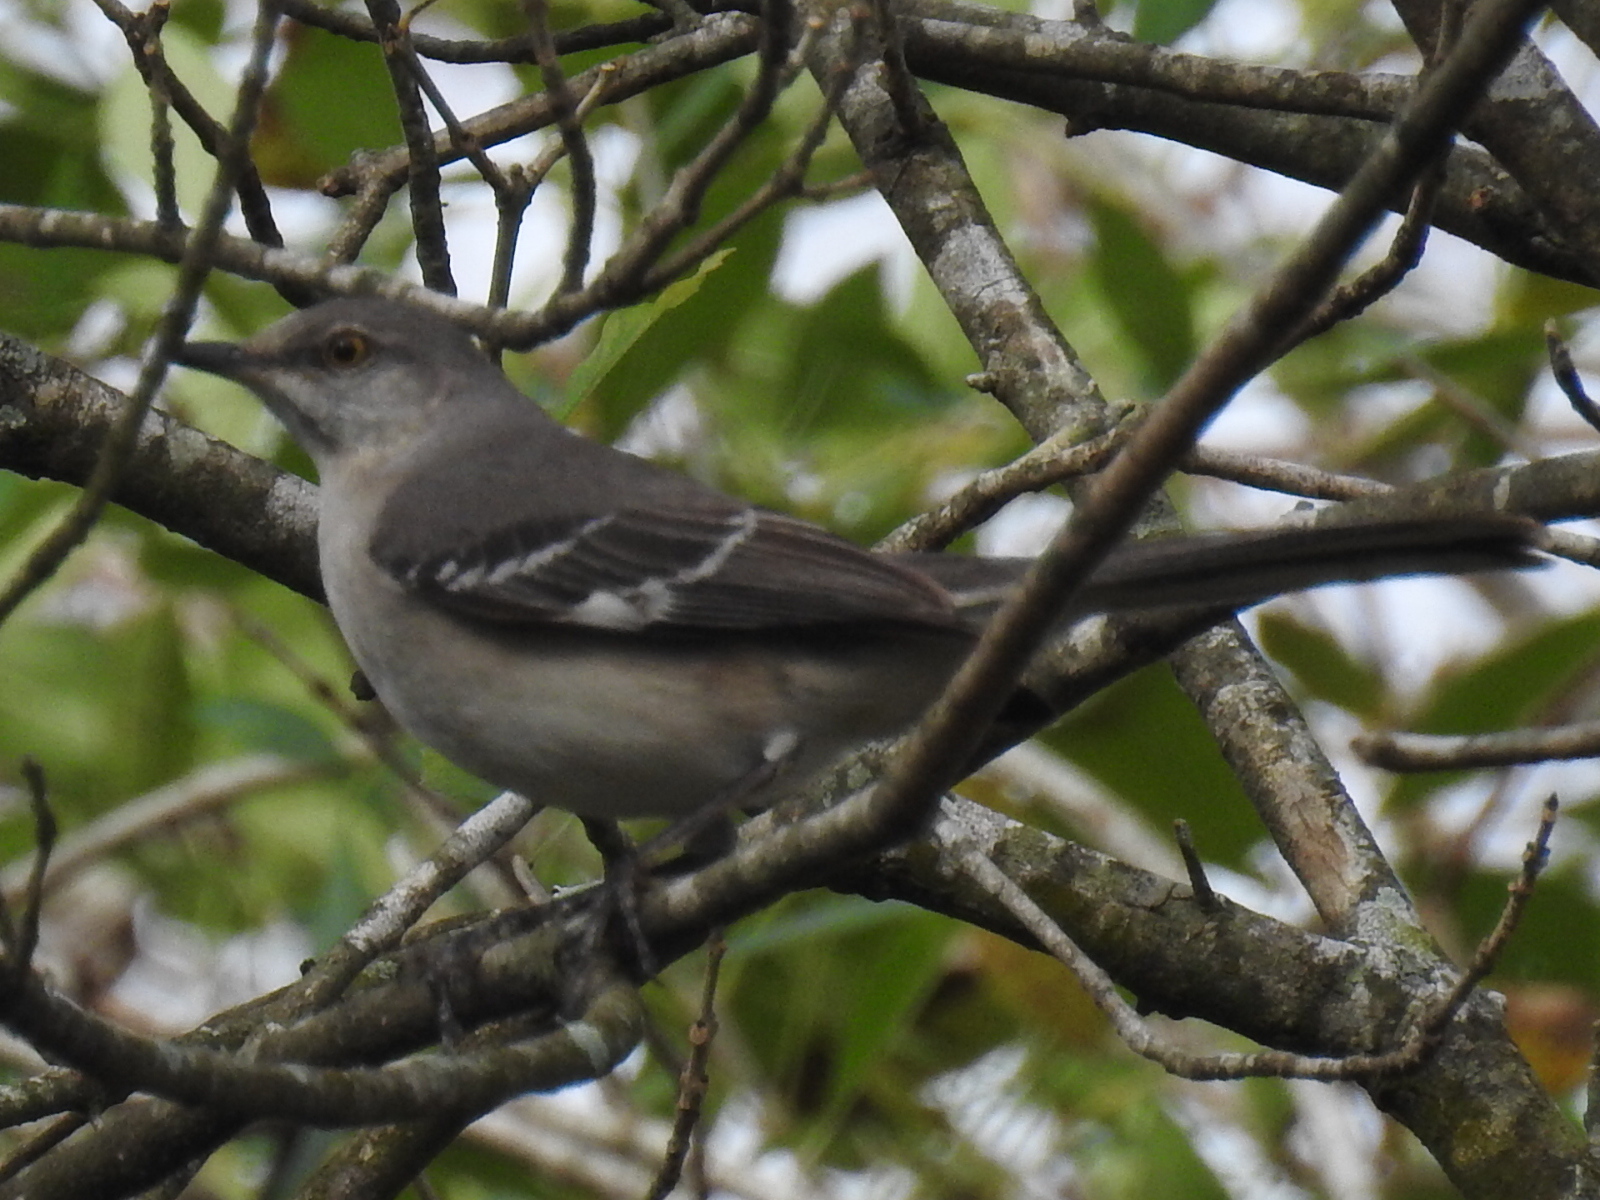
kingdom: Animalia
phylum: Chordata
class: Aves
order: Passeriformes
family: Mimidae
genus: Mimus
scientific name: Mimus polyglottos
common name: Northern mockingbird
